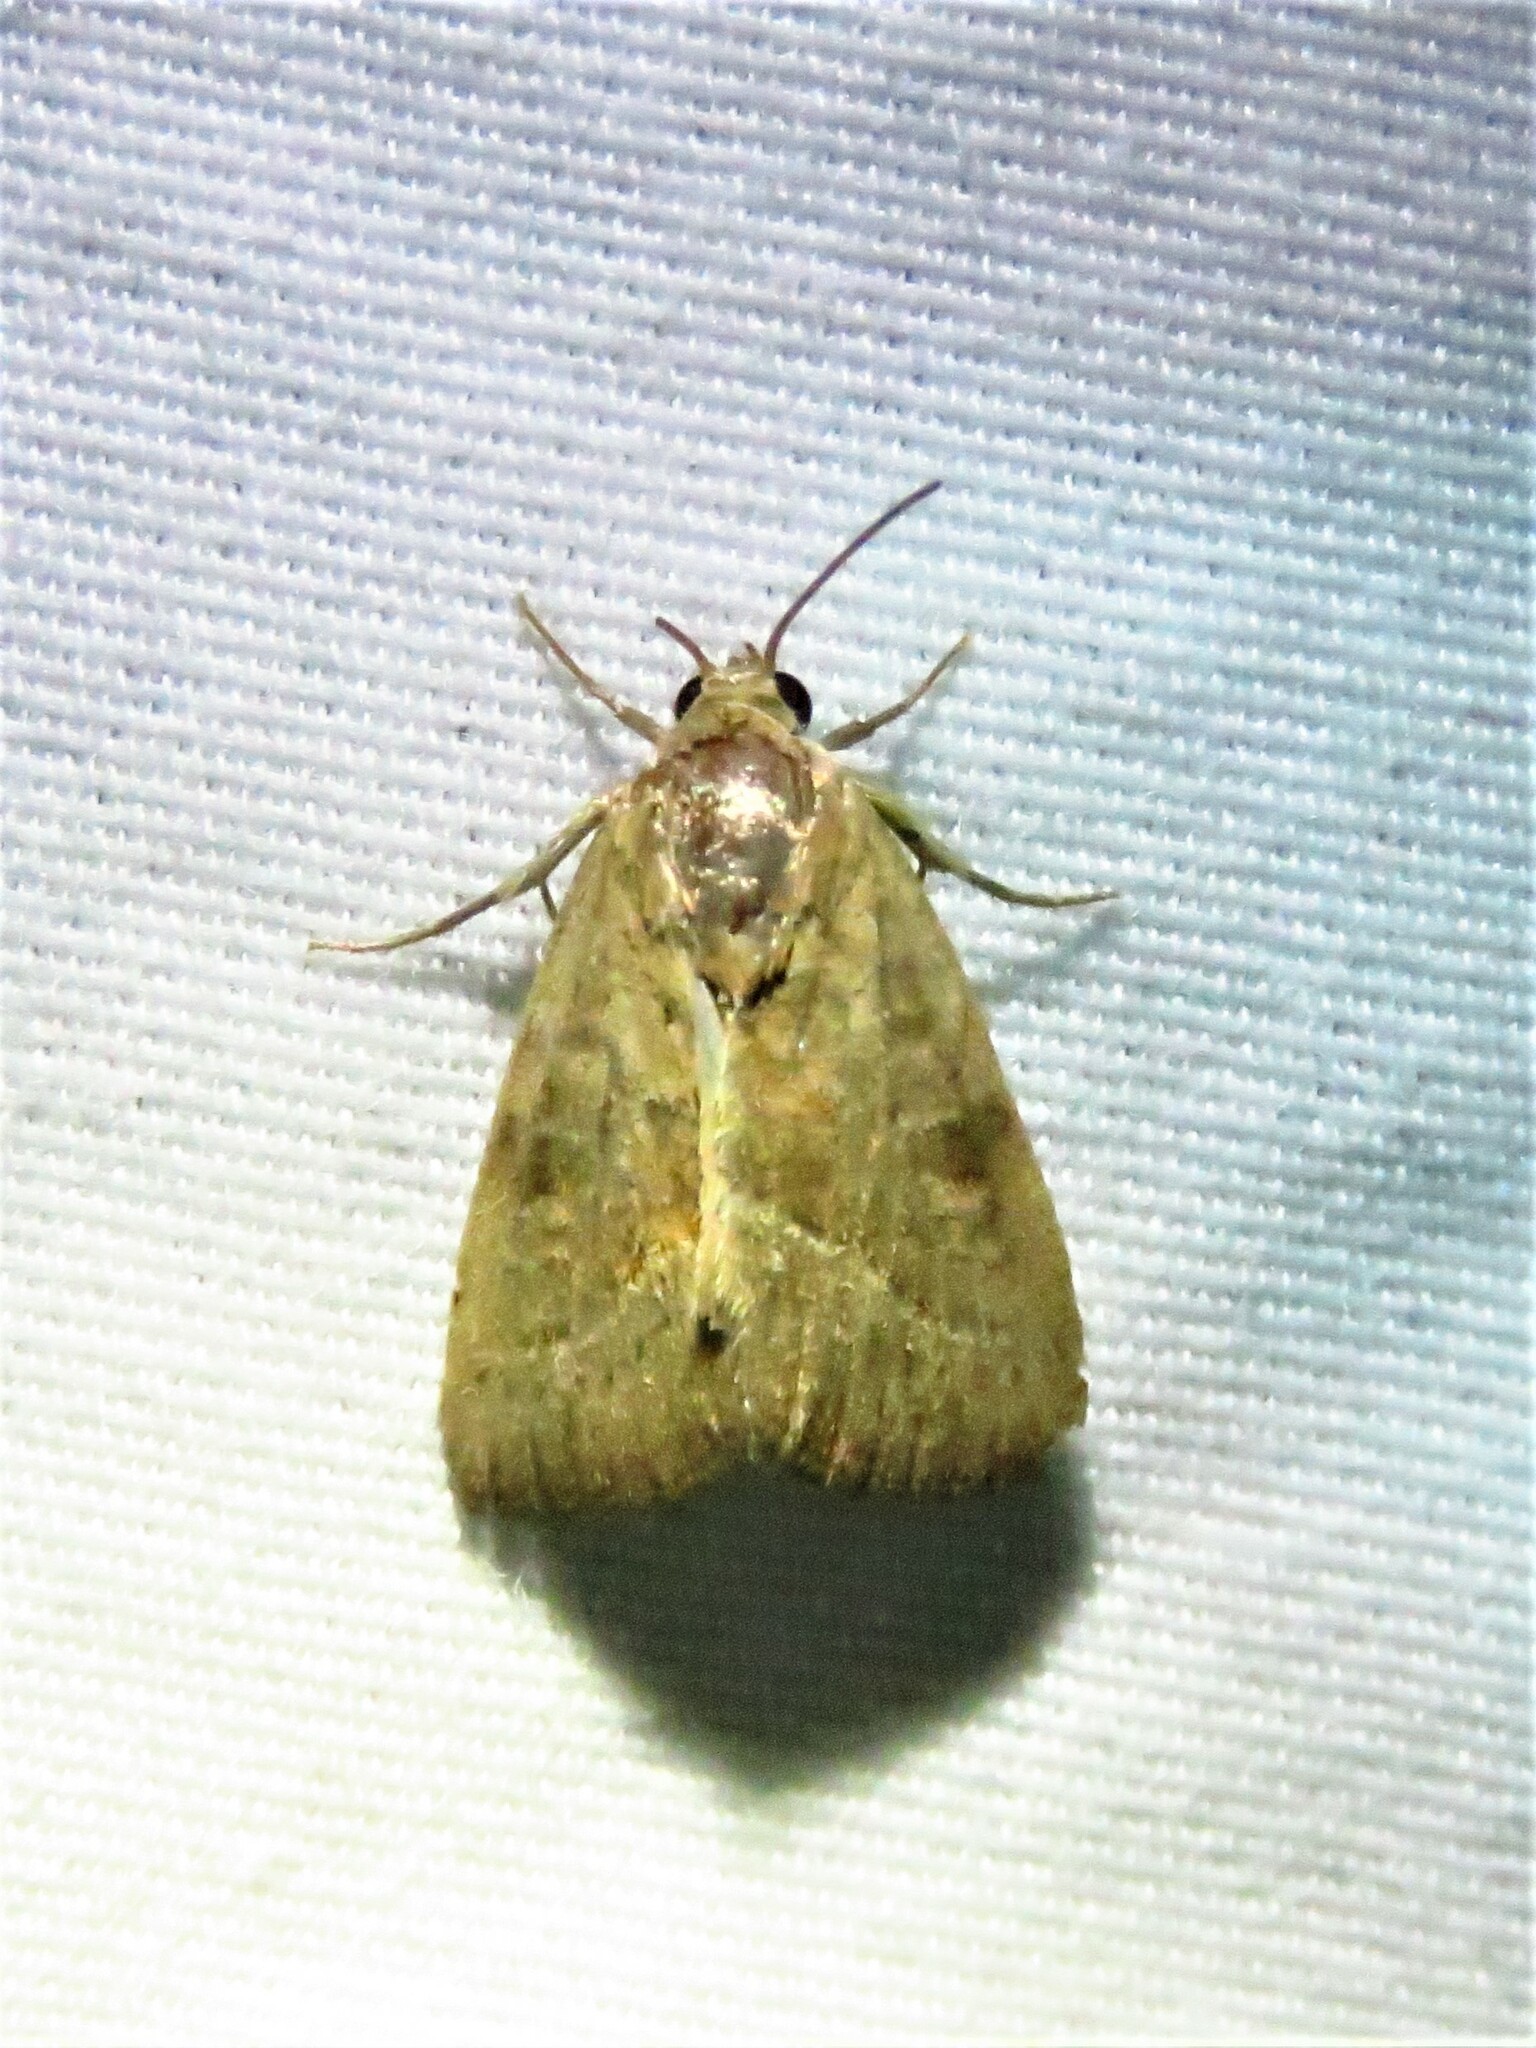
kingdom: Animalia
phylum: Arthropoda
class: Insecta
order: Lepidoptera
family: Noctuidae
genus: Galgula
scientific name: Galgula partita
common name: Wedgeling
